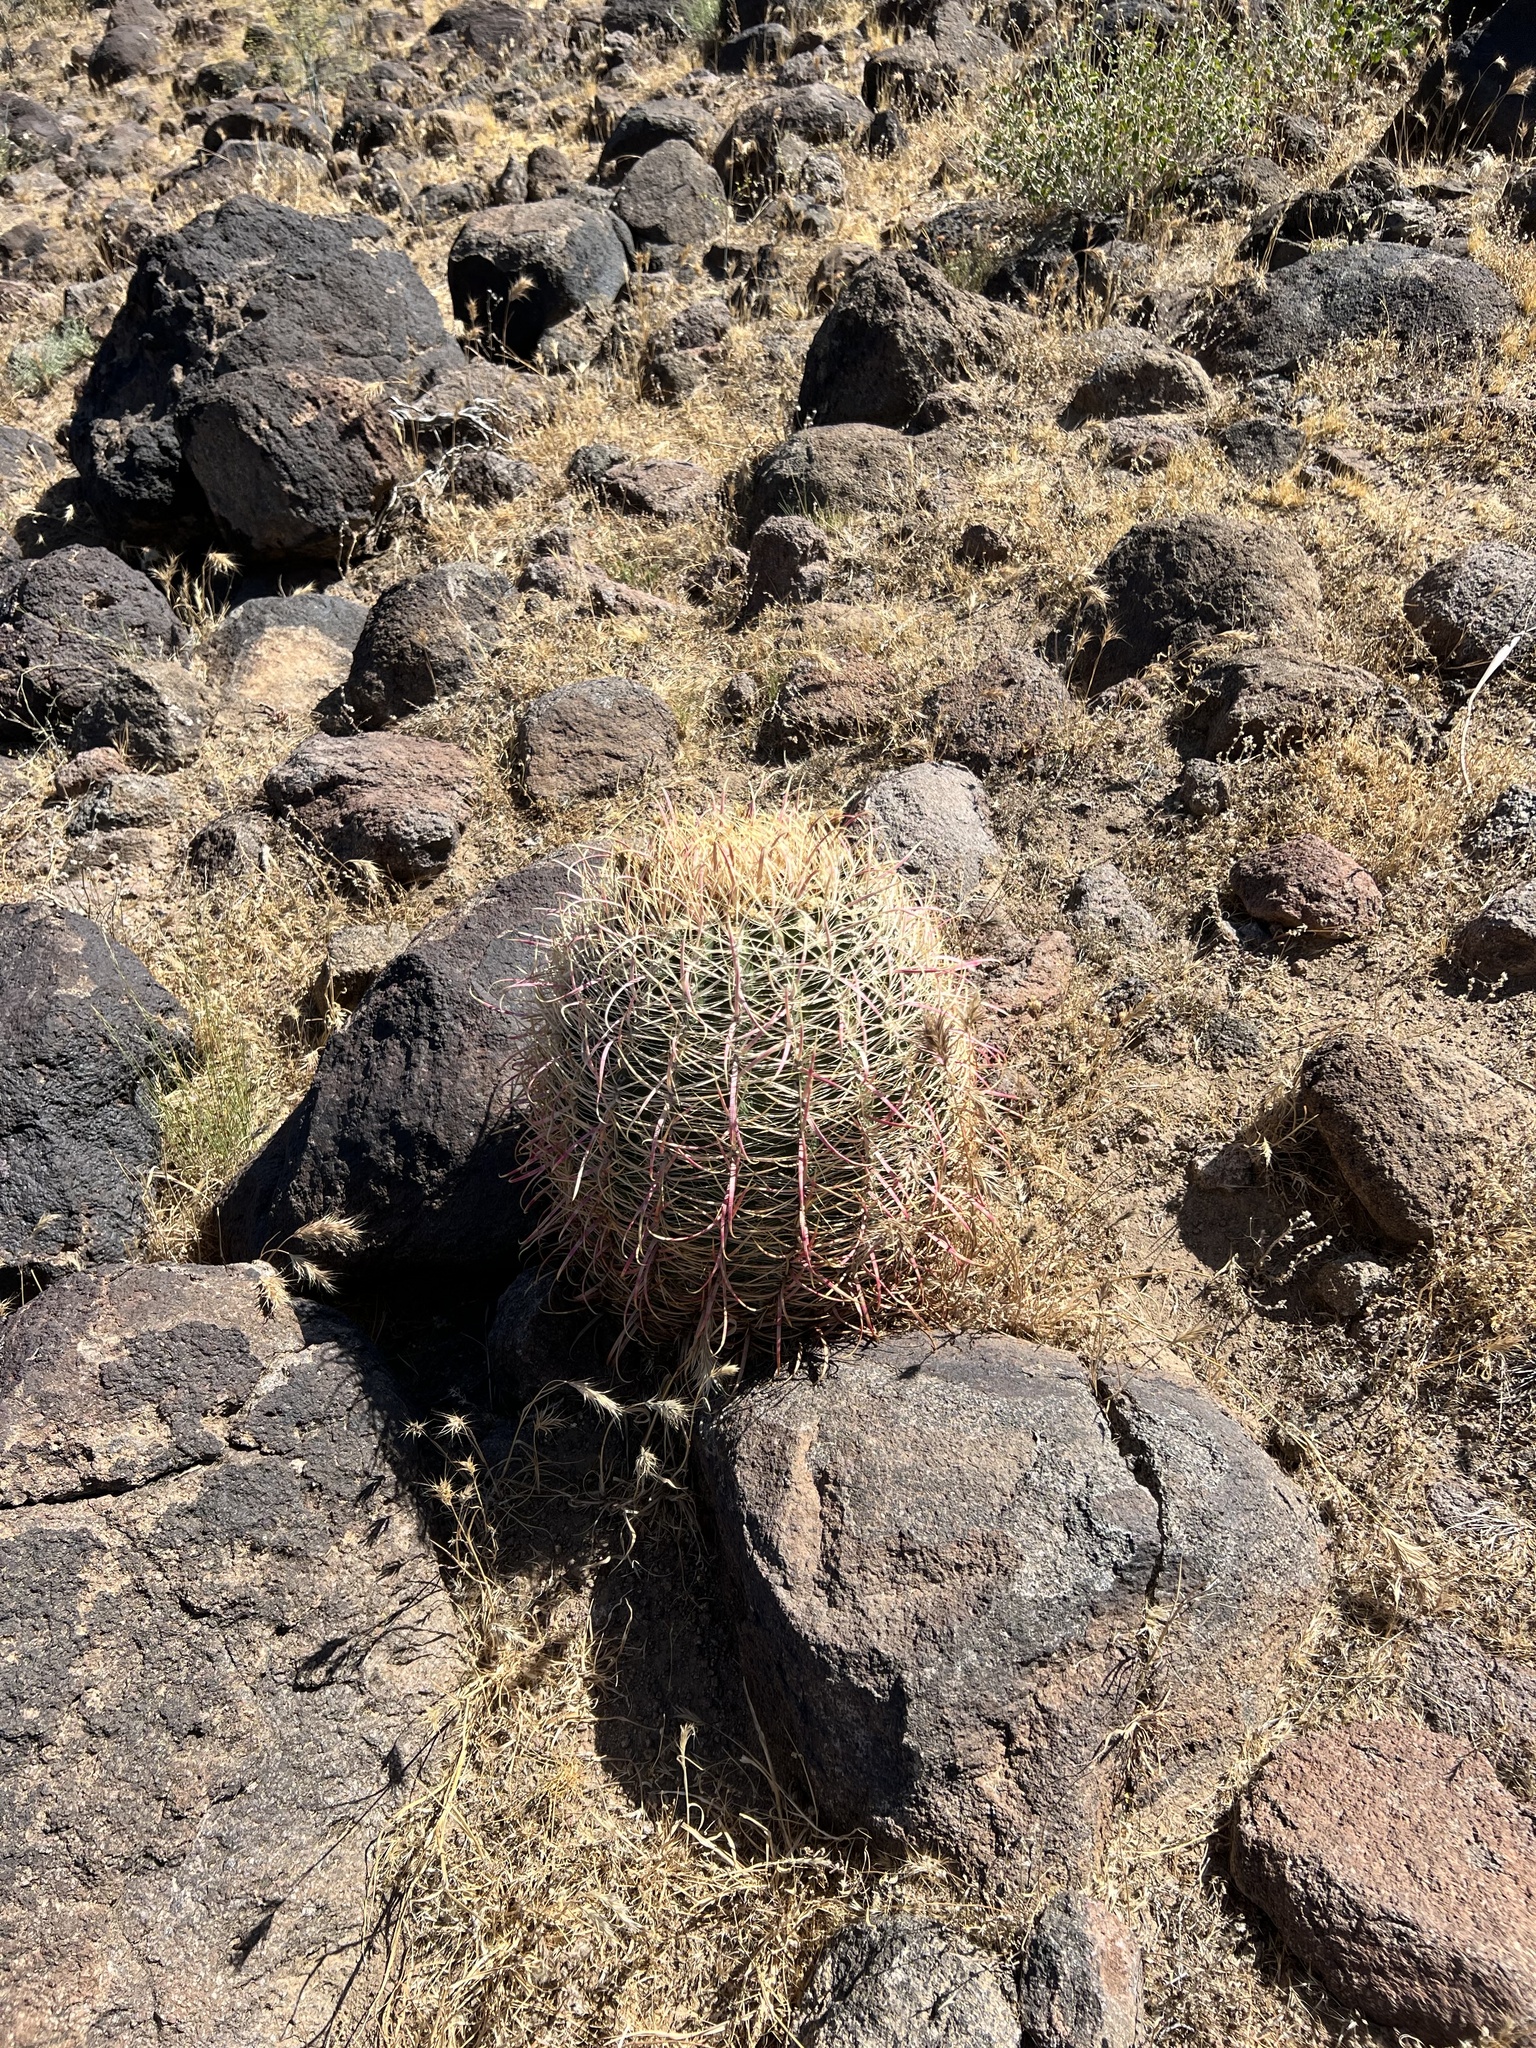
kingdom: Plantae
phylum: Tracheophyta
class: Magnoliopsida
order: Caryophyllales
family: Cactaceae
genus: Ferocactus
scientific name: Ferocactus cylindraceus
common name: California barrel cactus
